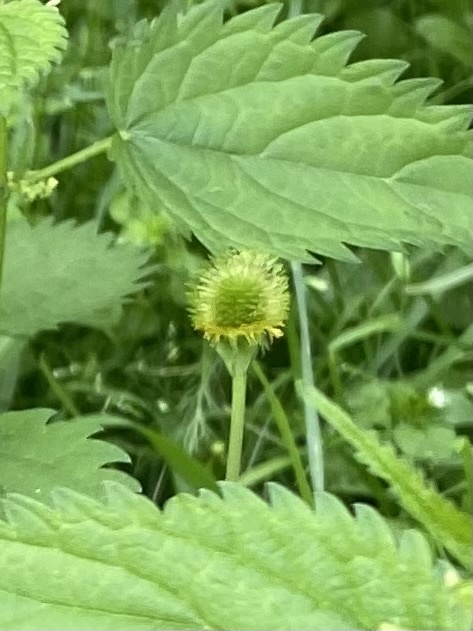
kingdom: Plantae
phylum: Tracheophyta
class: Magnoliopsida
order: Rosales
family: Rosaceae
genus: Geum
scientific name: Geum aleppicum
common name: Yellow avens
